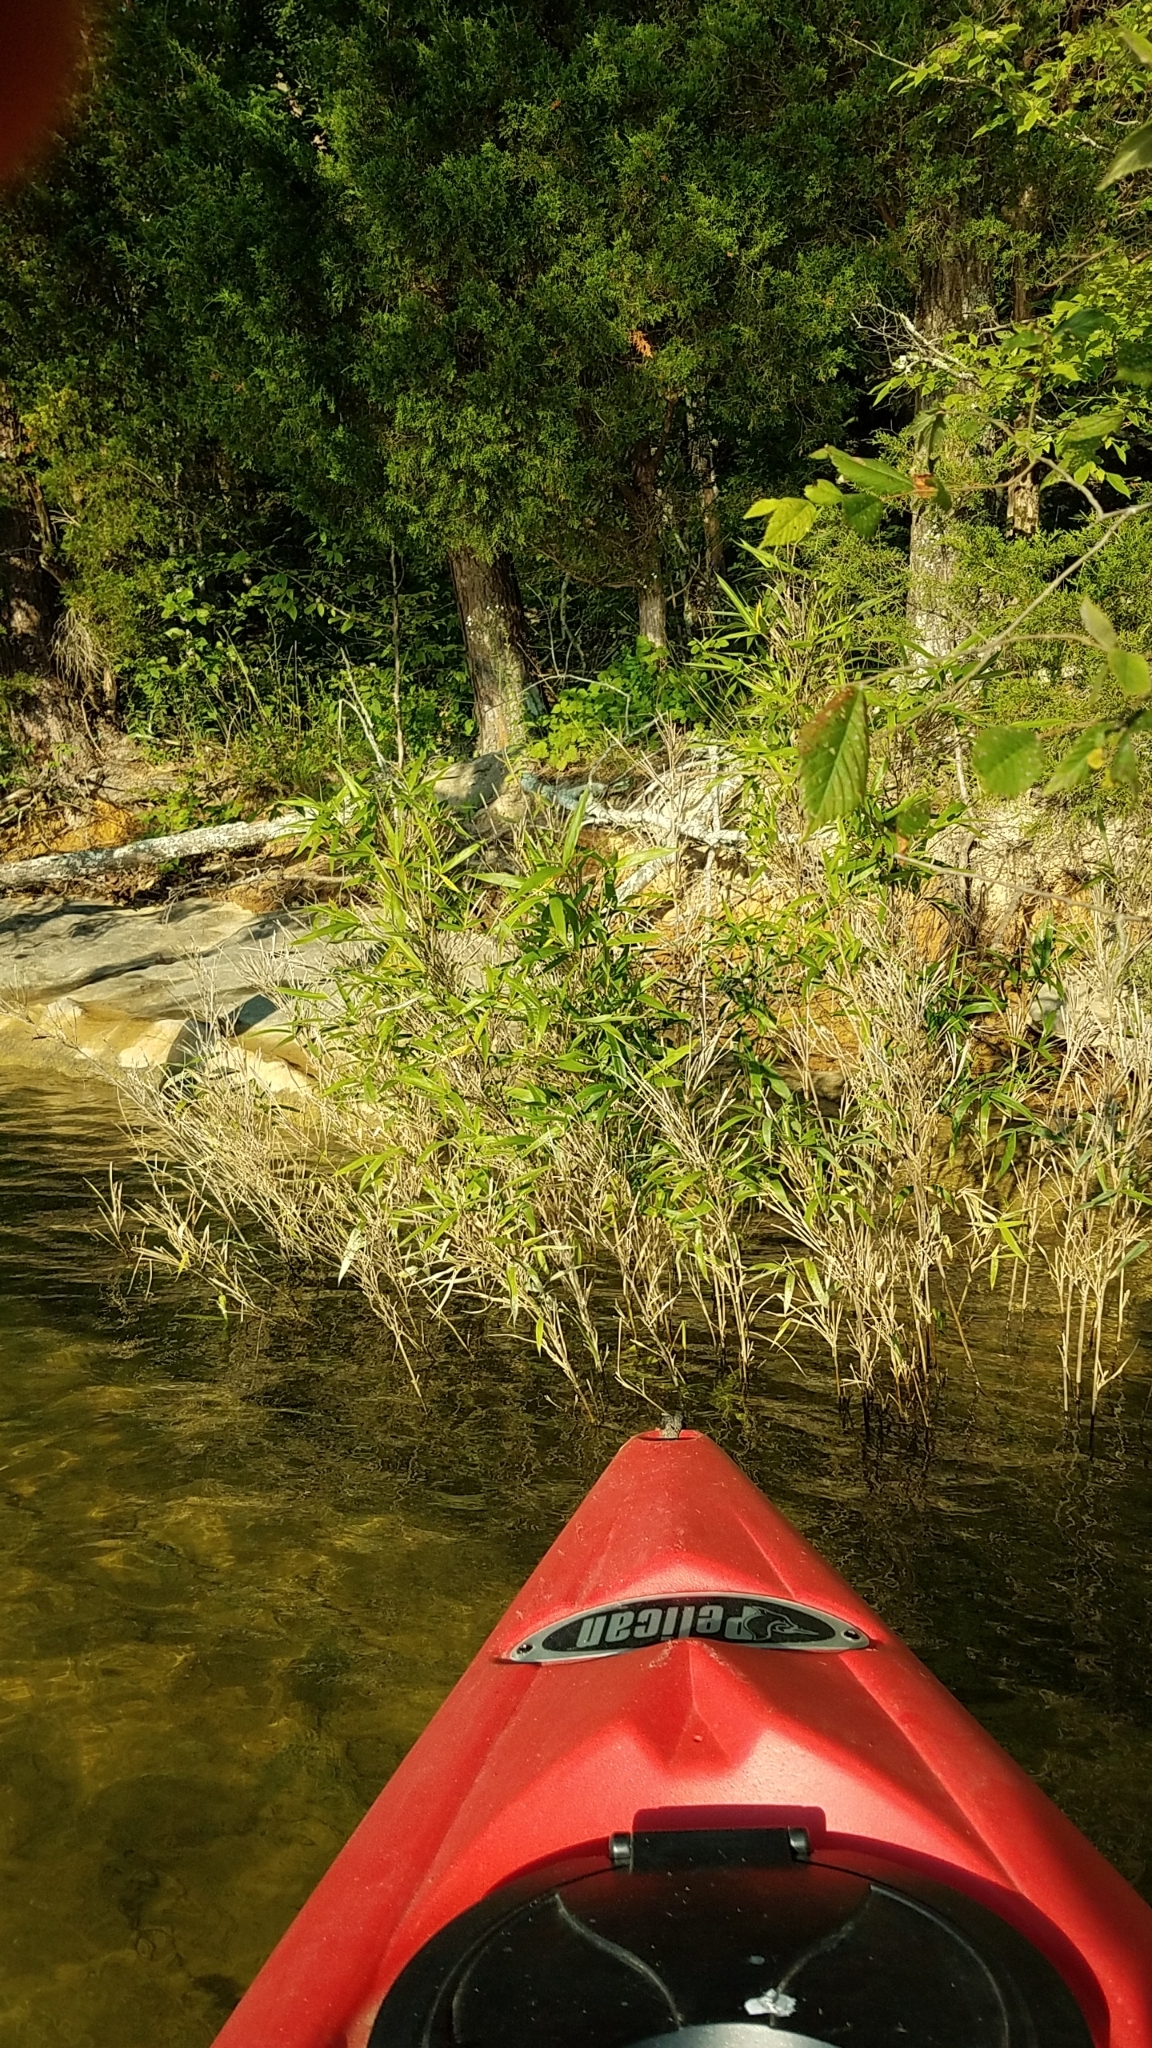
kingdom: Plantae
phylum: Tracheophyta
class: Liliopsida
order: Poales
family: Poaceae
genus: Arundinaria
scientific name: Arundinaria gigantea
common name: Giant cane
